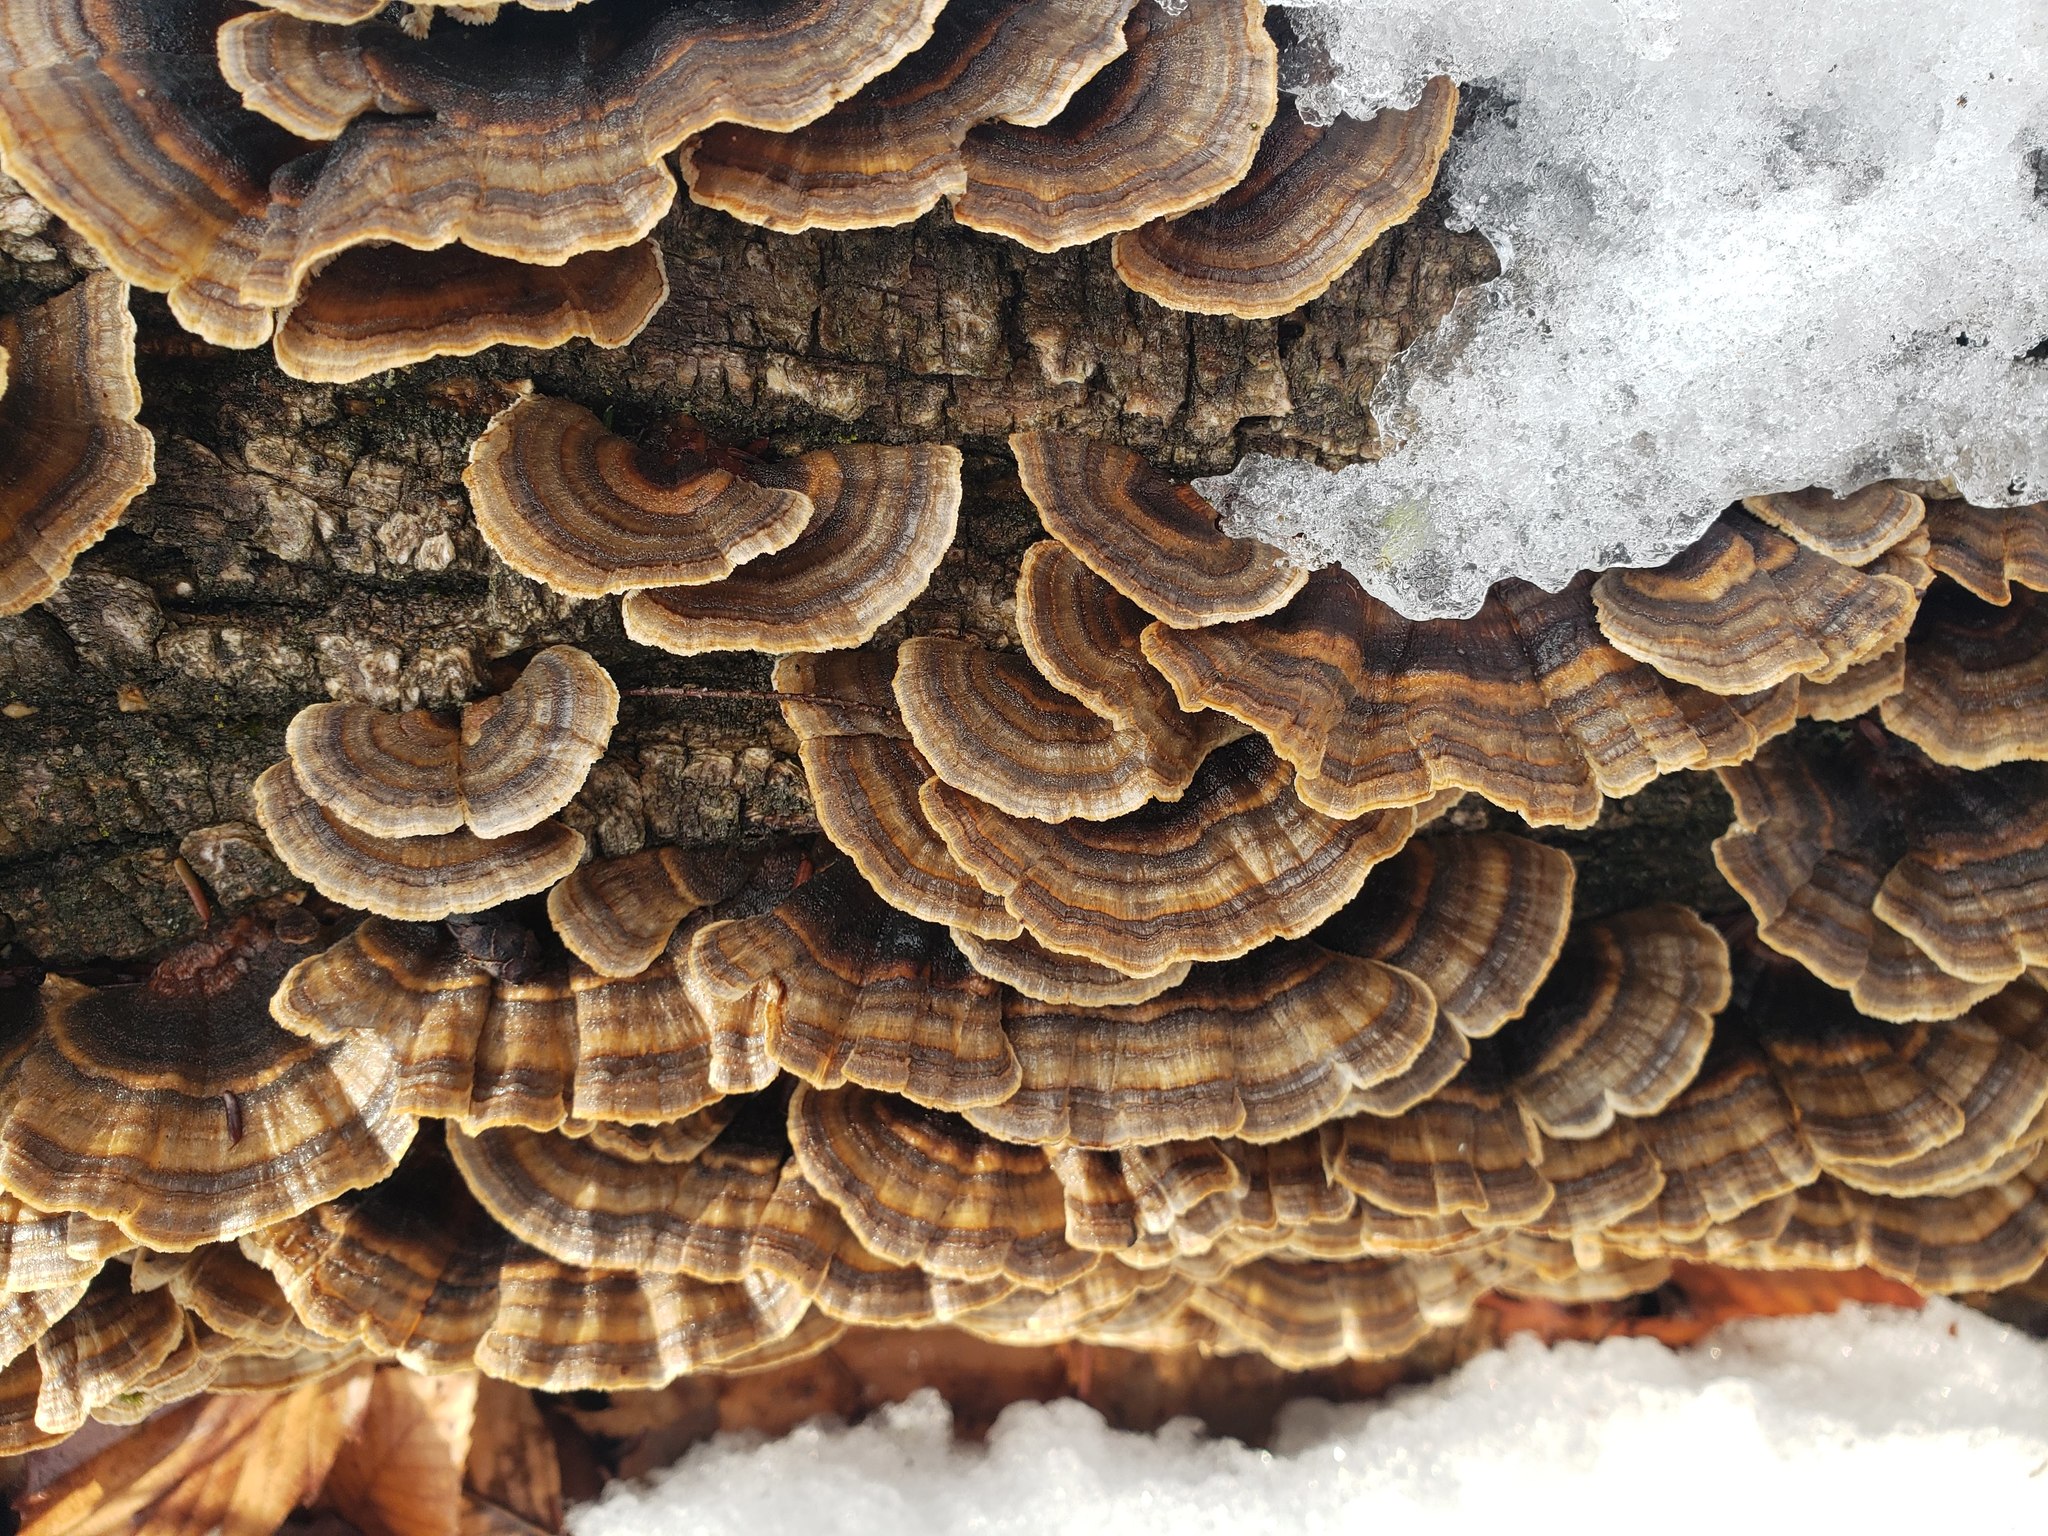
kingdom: Fungi
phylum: Basidiomycota
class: Agaricomycetes
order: Polyporales
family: Polyporaceae
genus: Trametes
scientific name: Trametes versicolor
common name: Turkeytail
